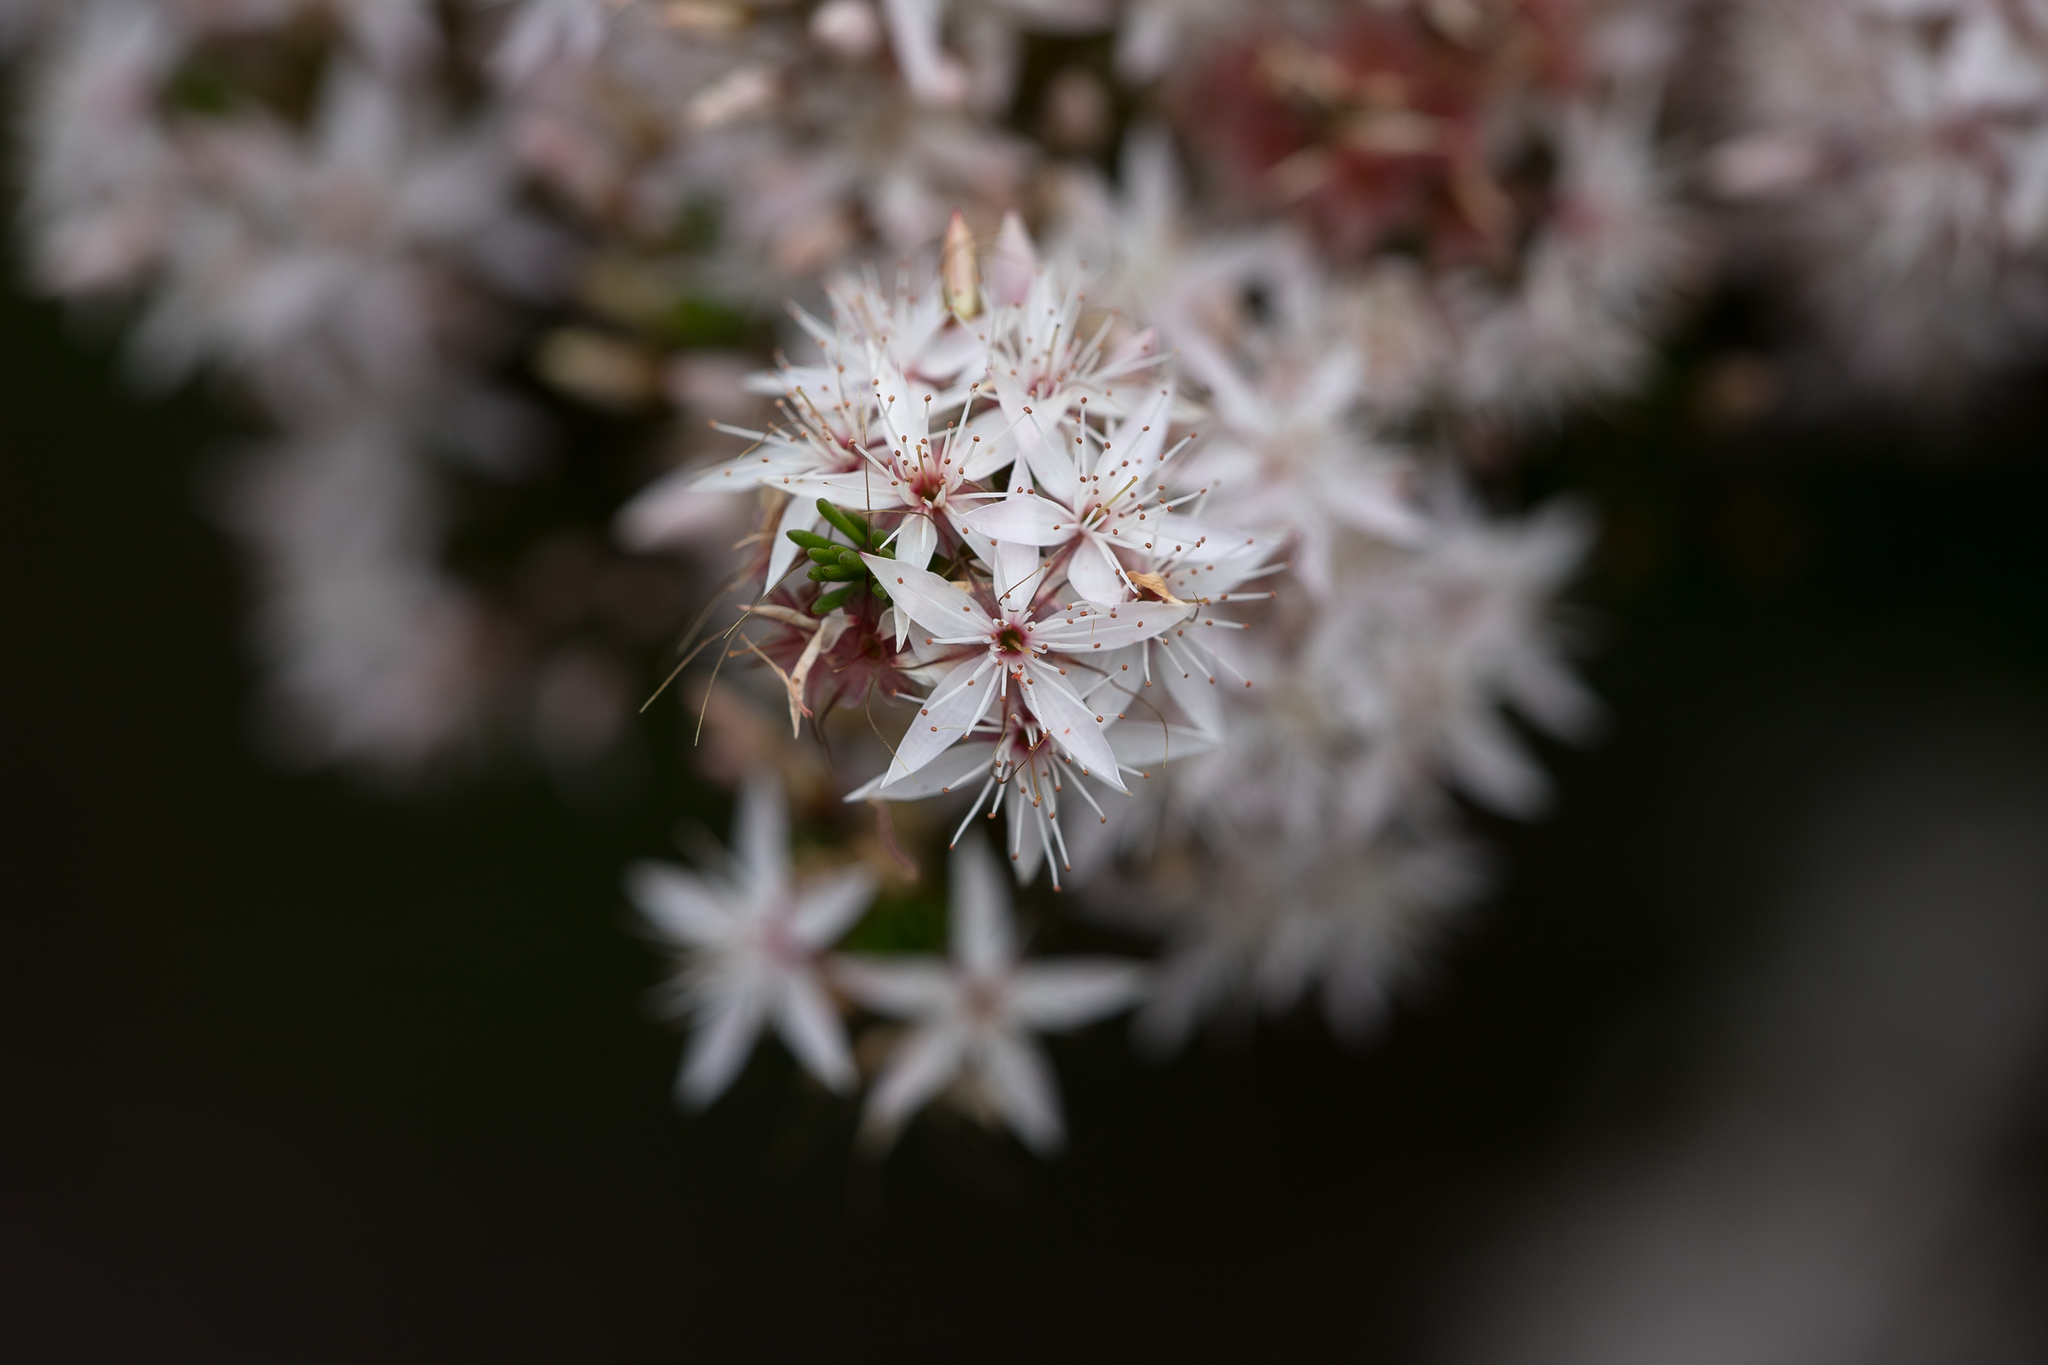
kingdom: Plantae
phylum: Tracheophyta
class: Magnoliopsida
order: Myrtales
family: Myrtaceae
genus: Calytrix
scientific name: Calytrix tetragona
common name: Common fringe myrtle
